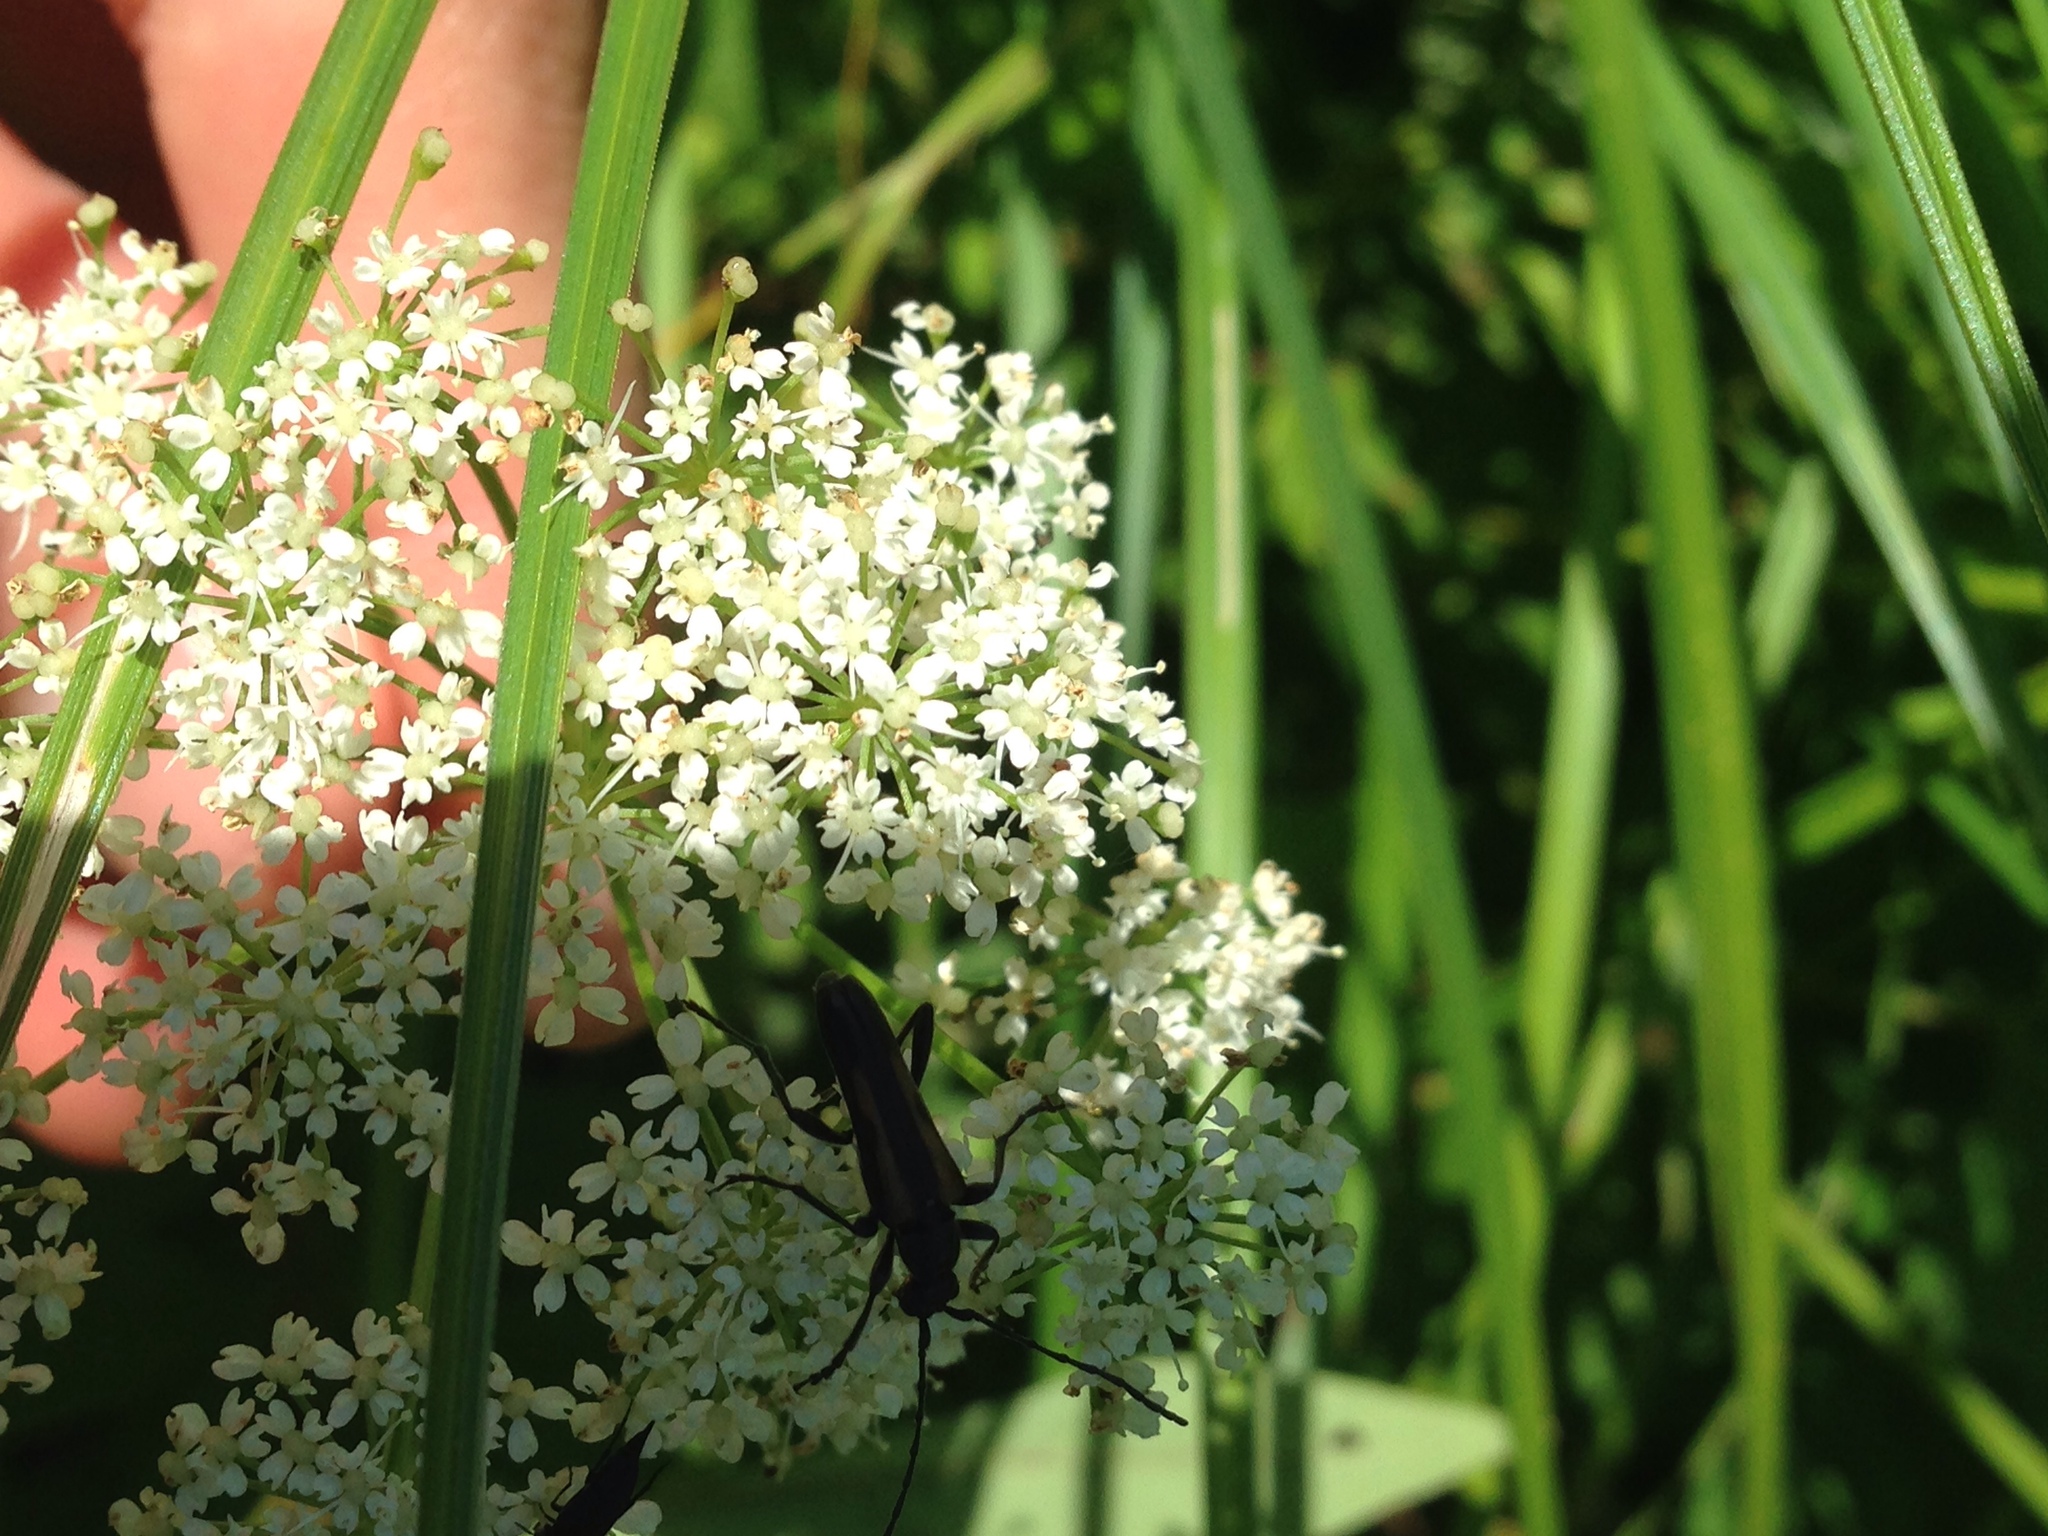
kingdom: Animalia
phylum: Arthropoda
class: Insecta
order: Coleoptera
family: Cerambycidae
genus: Strangalepta
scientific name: Strangalepta abbreviata
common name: Strangalepta flower longhorn beetle
